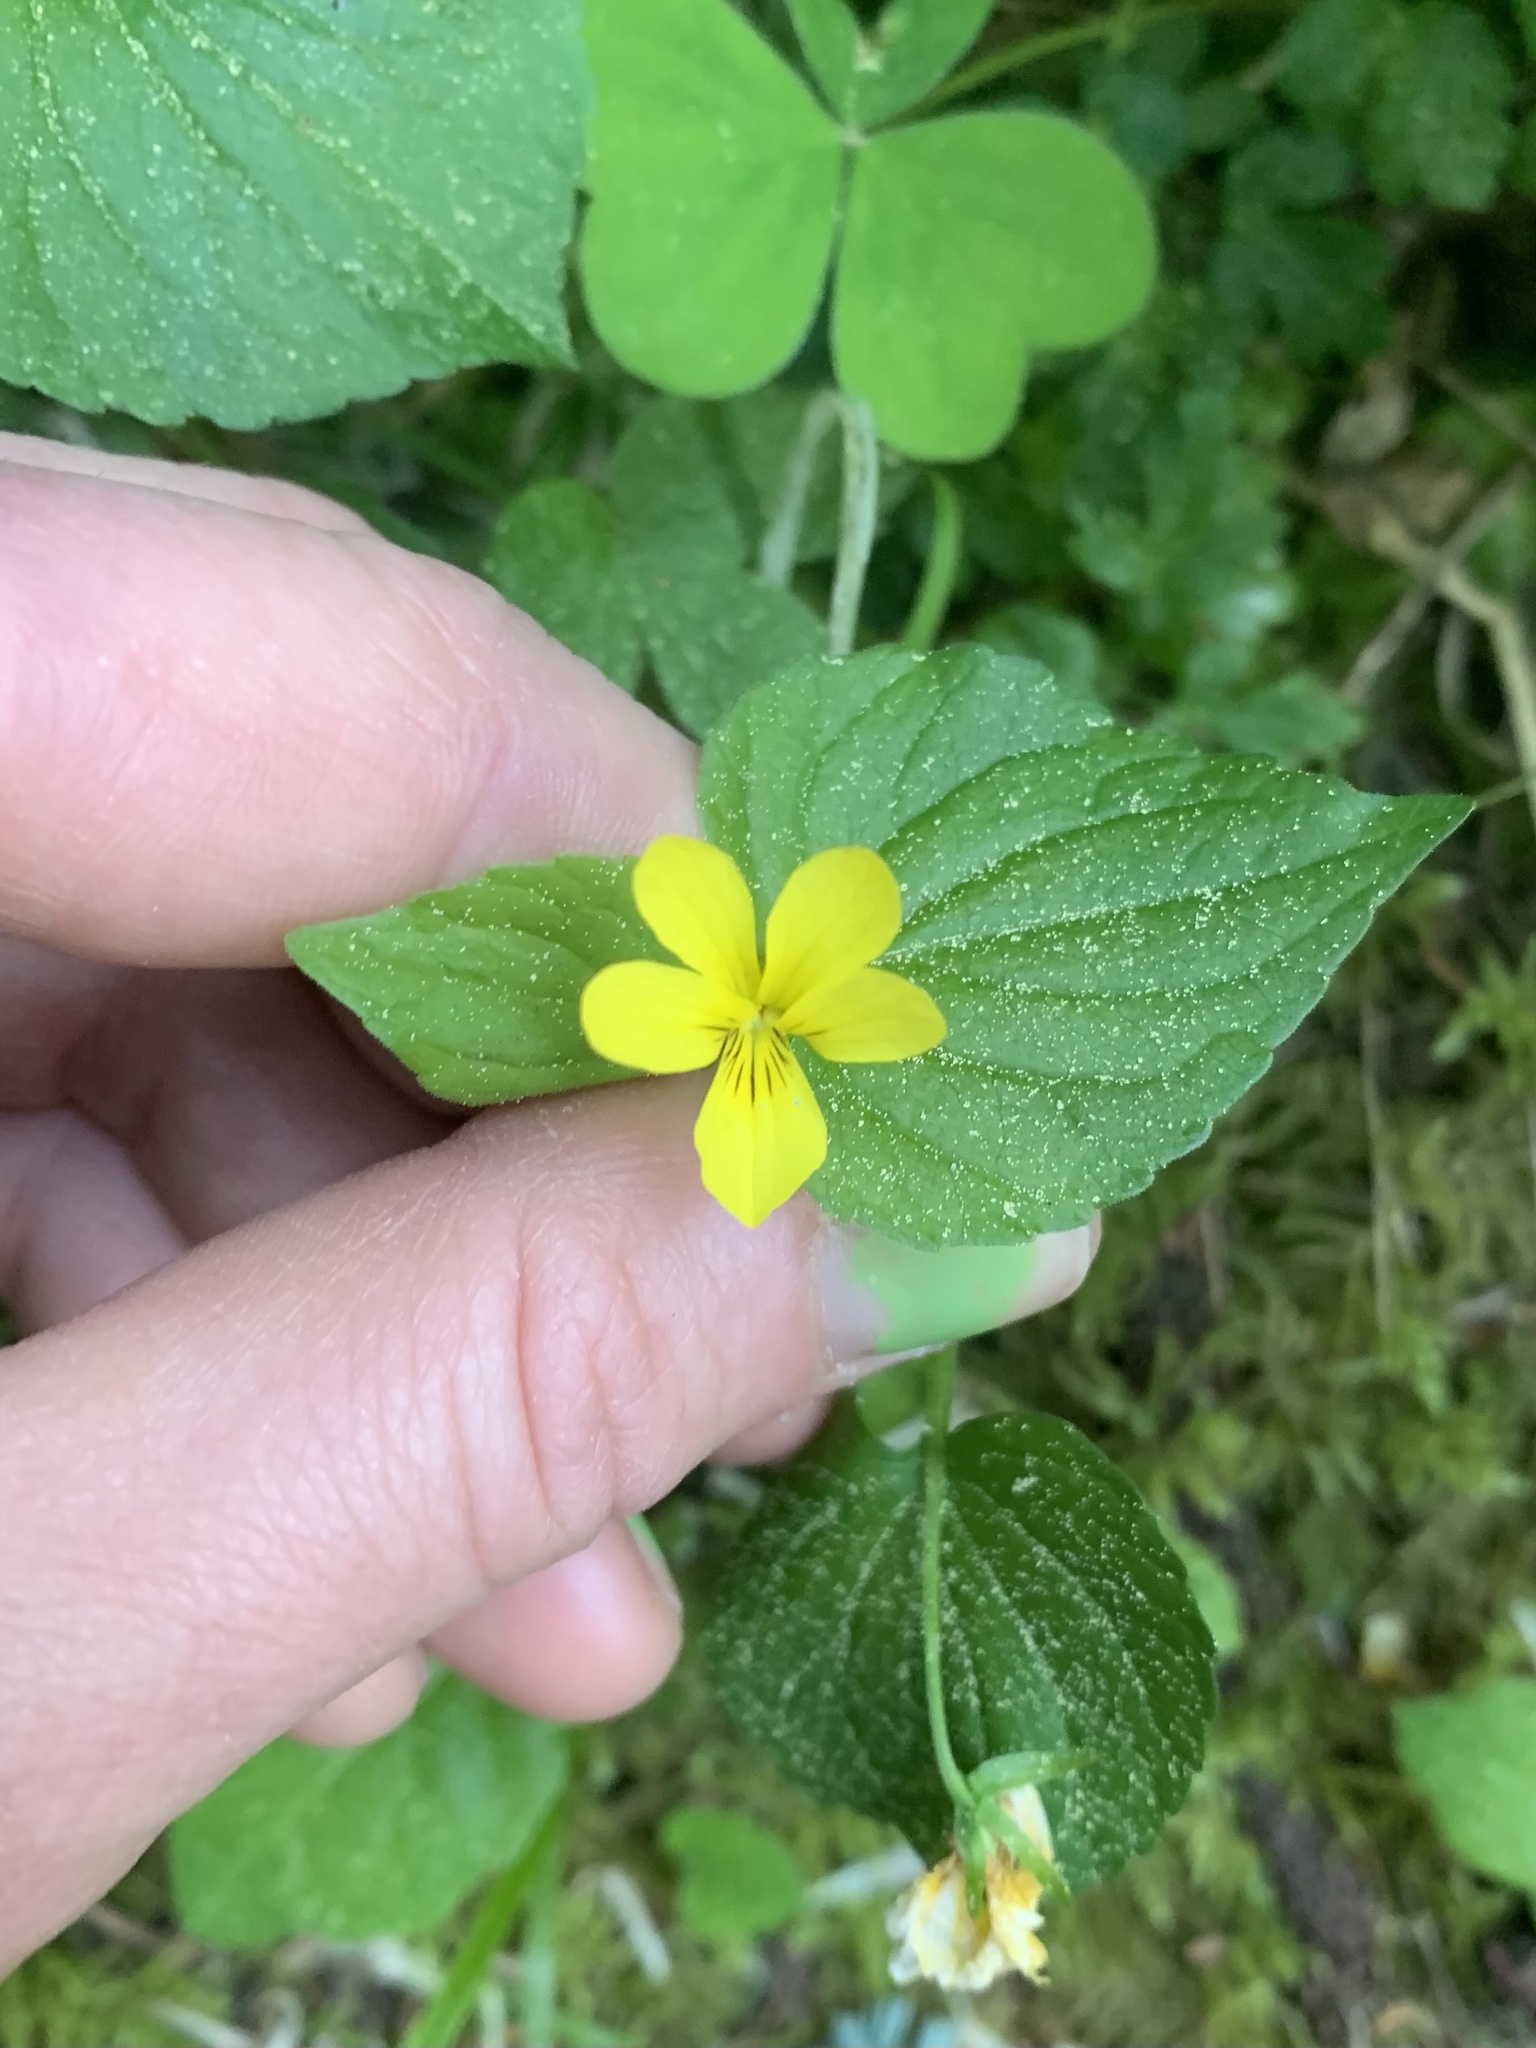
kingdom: Plantae
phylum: Tracheophyta
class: Magnoliopsida
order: Malpighiales
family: Violaceae
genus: Viola
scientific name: Viola glabella
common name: Stream violet
